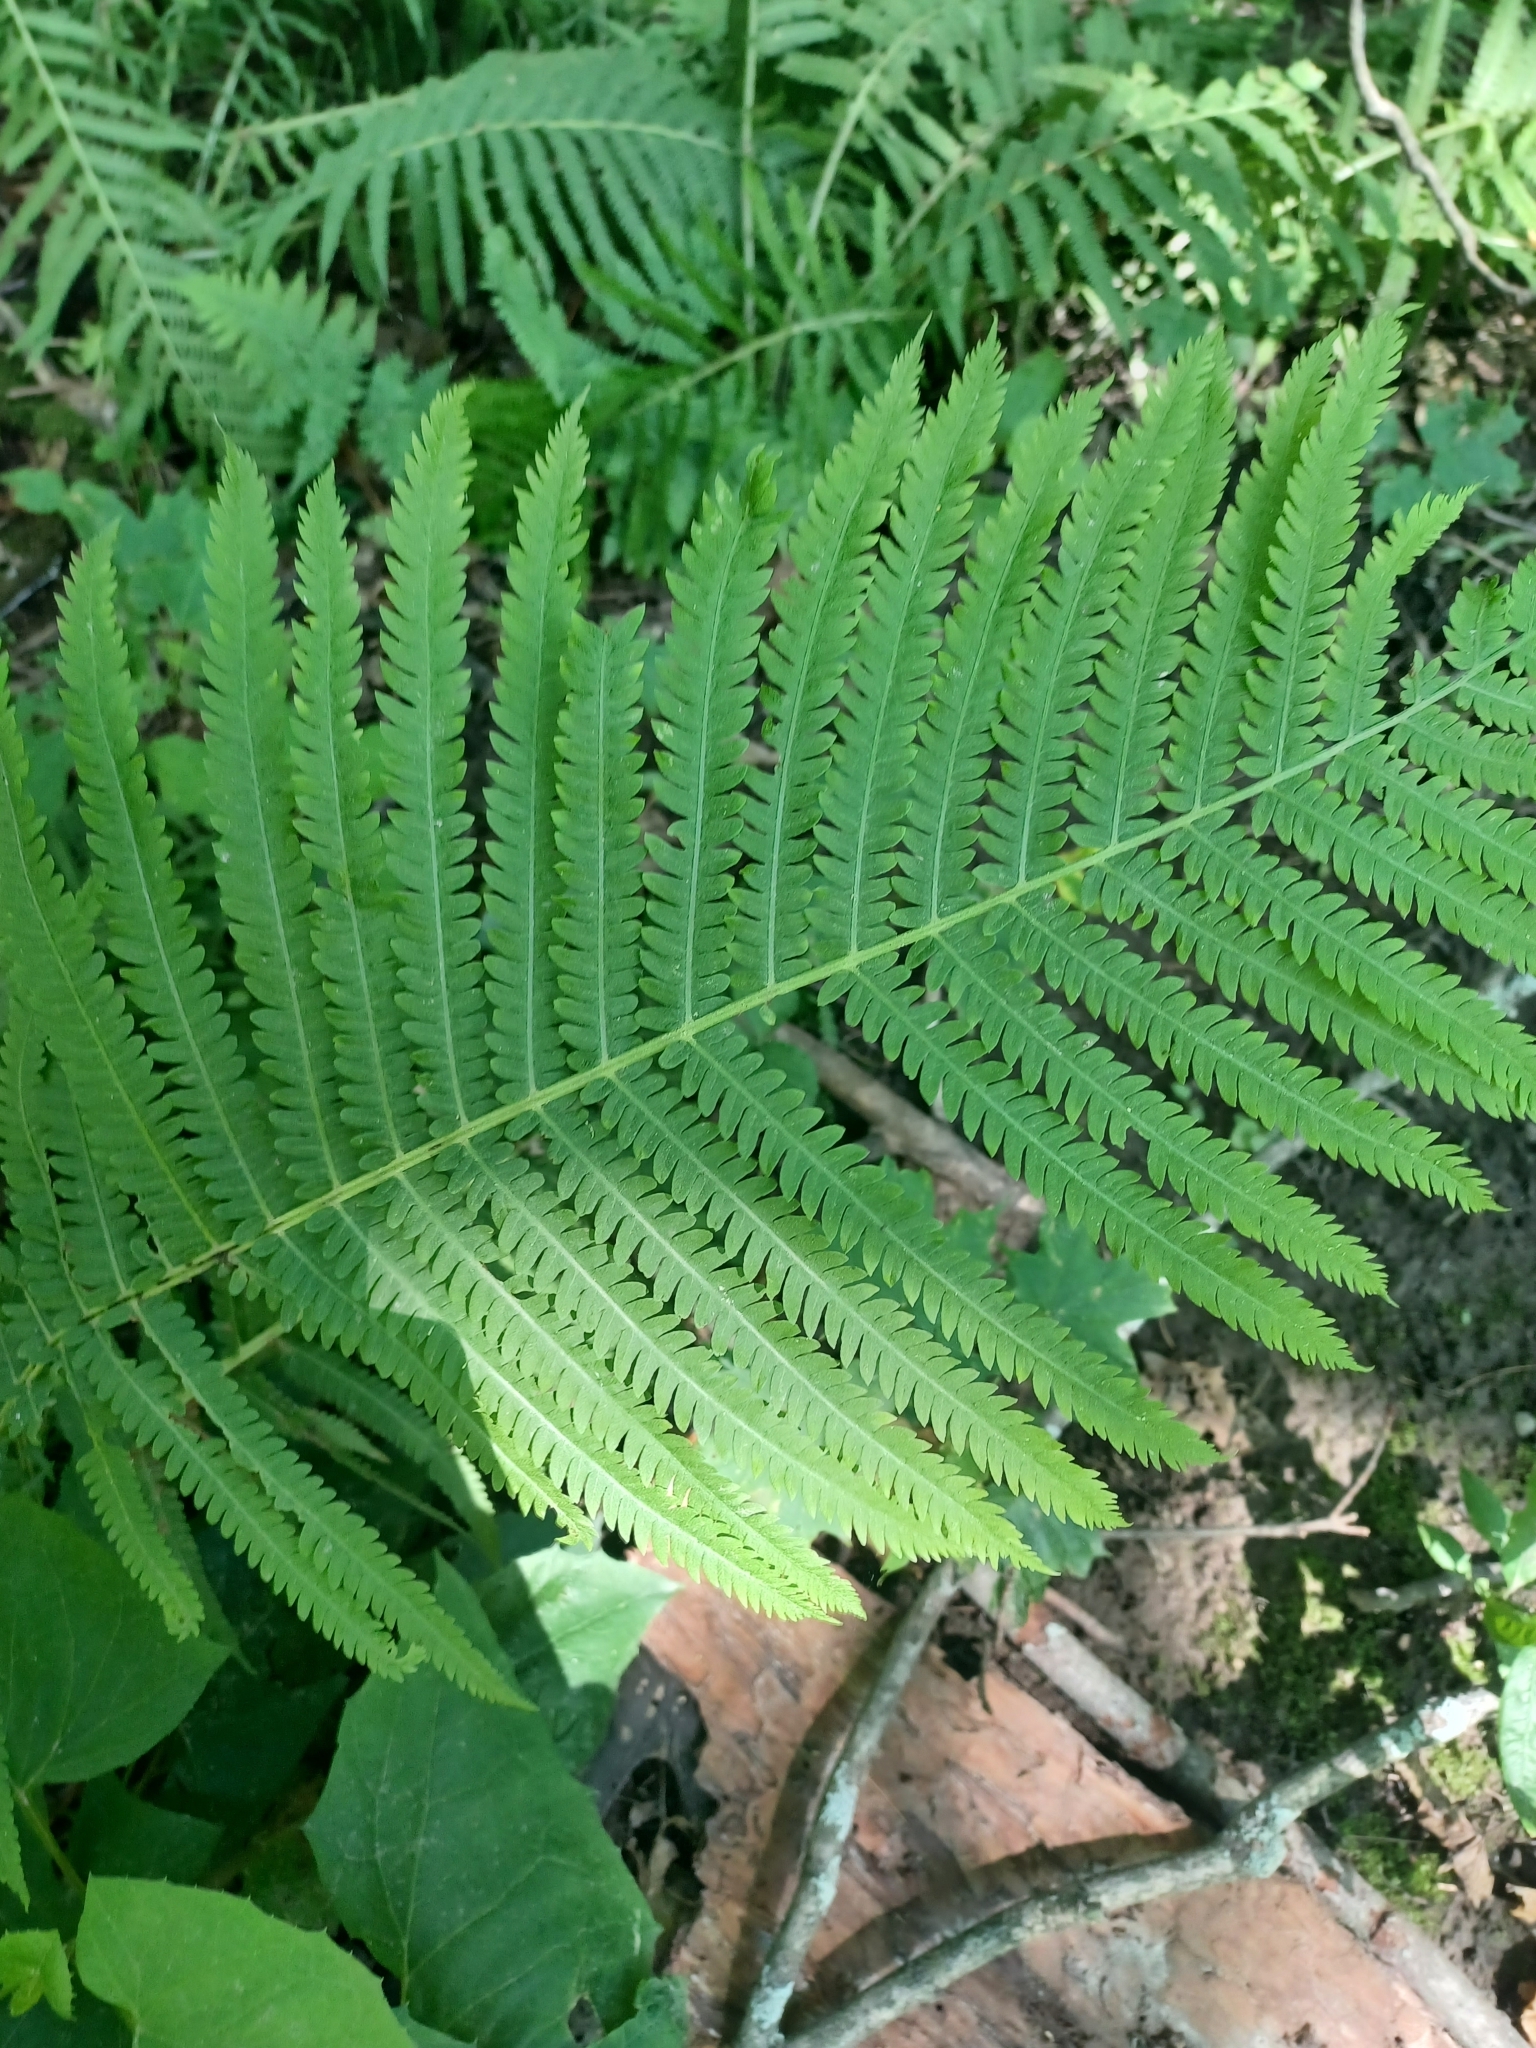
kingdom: Plantae
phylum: Tracheophyta
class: Polypodiopsida
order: Polypodiales
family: Onocleaceae
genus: Matteuccia
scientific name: Matteuccia struthiopteris
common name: Ostrich fern
